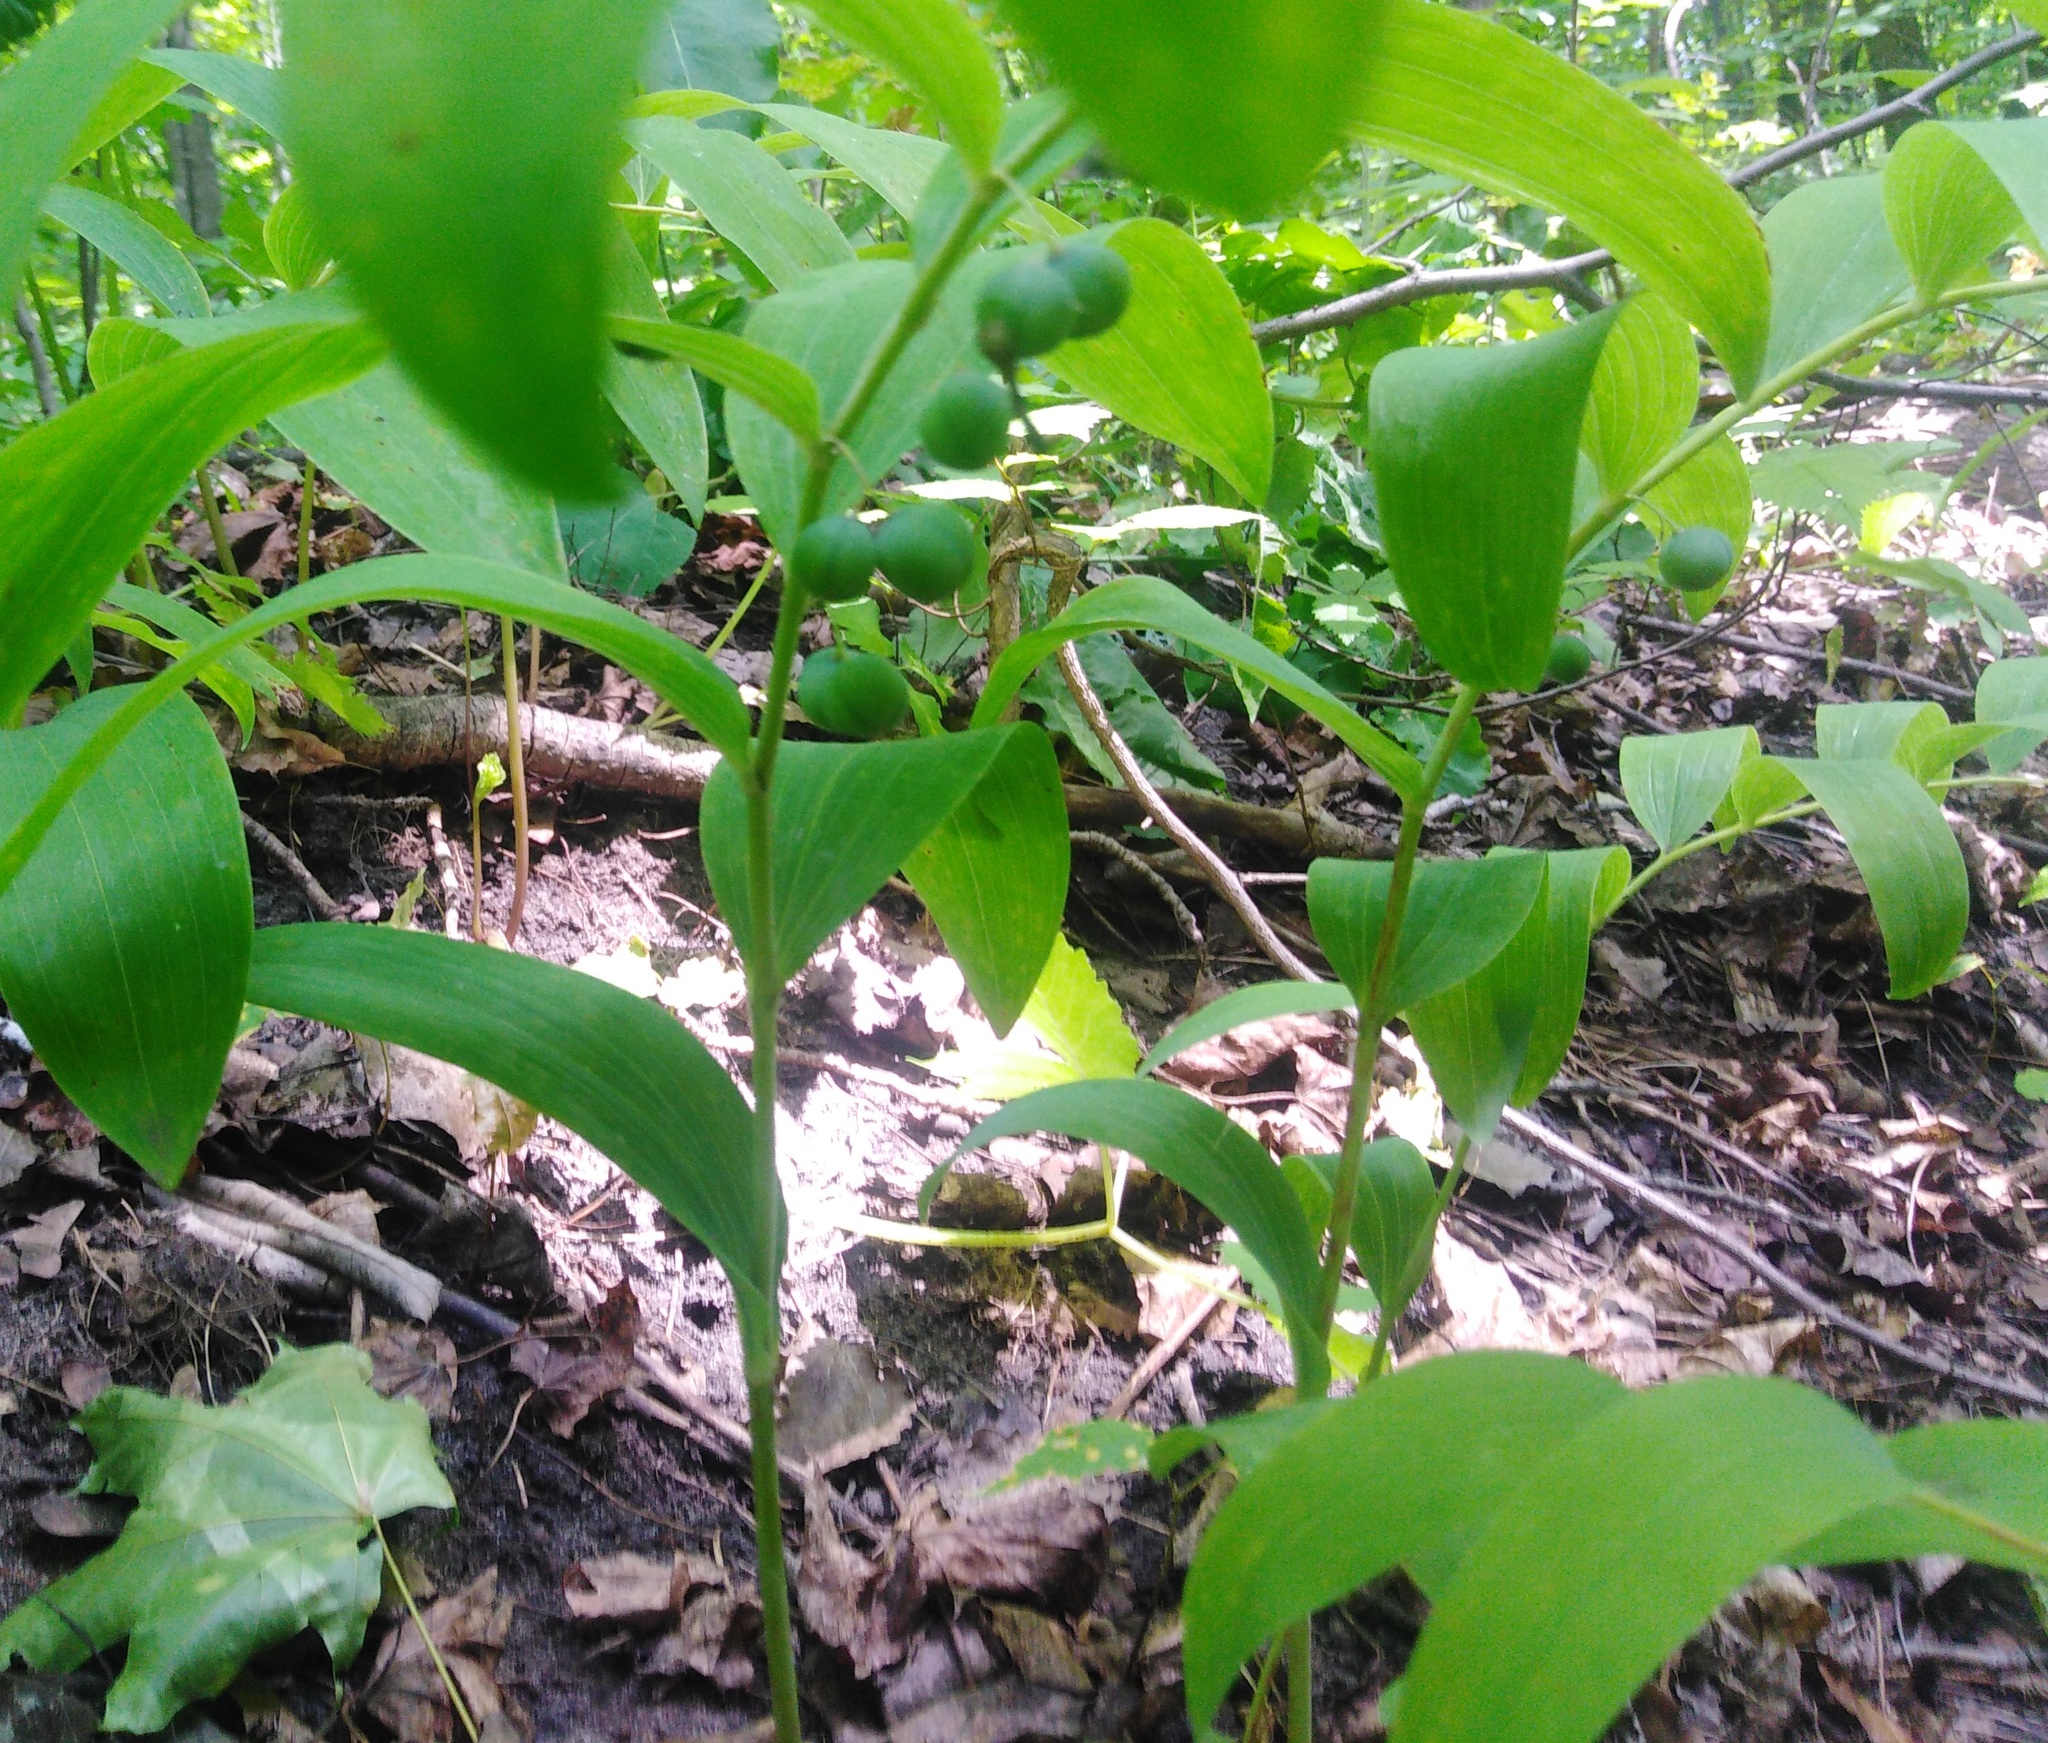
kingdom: Plantae
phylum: Tracheophyta
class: Liliopsida
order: Asparagales
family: Asparagaceae
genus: Polygonatum
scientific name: Polygonatum multiflorum
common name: Solomon's-seal
